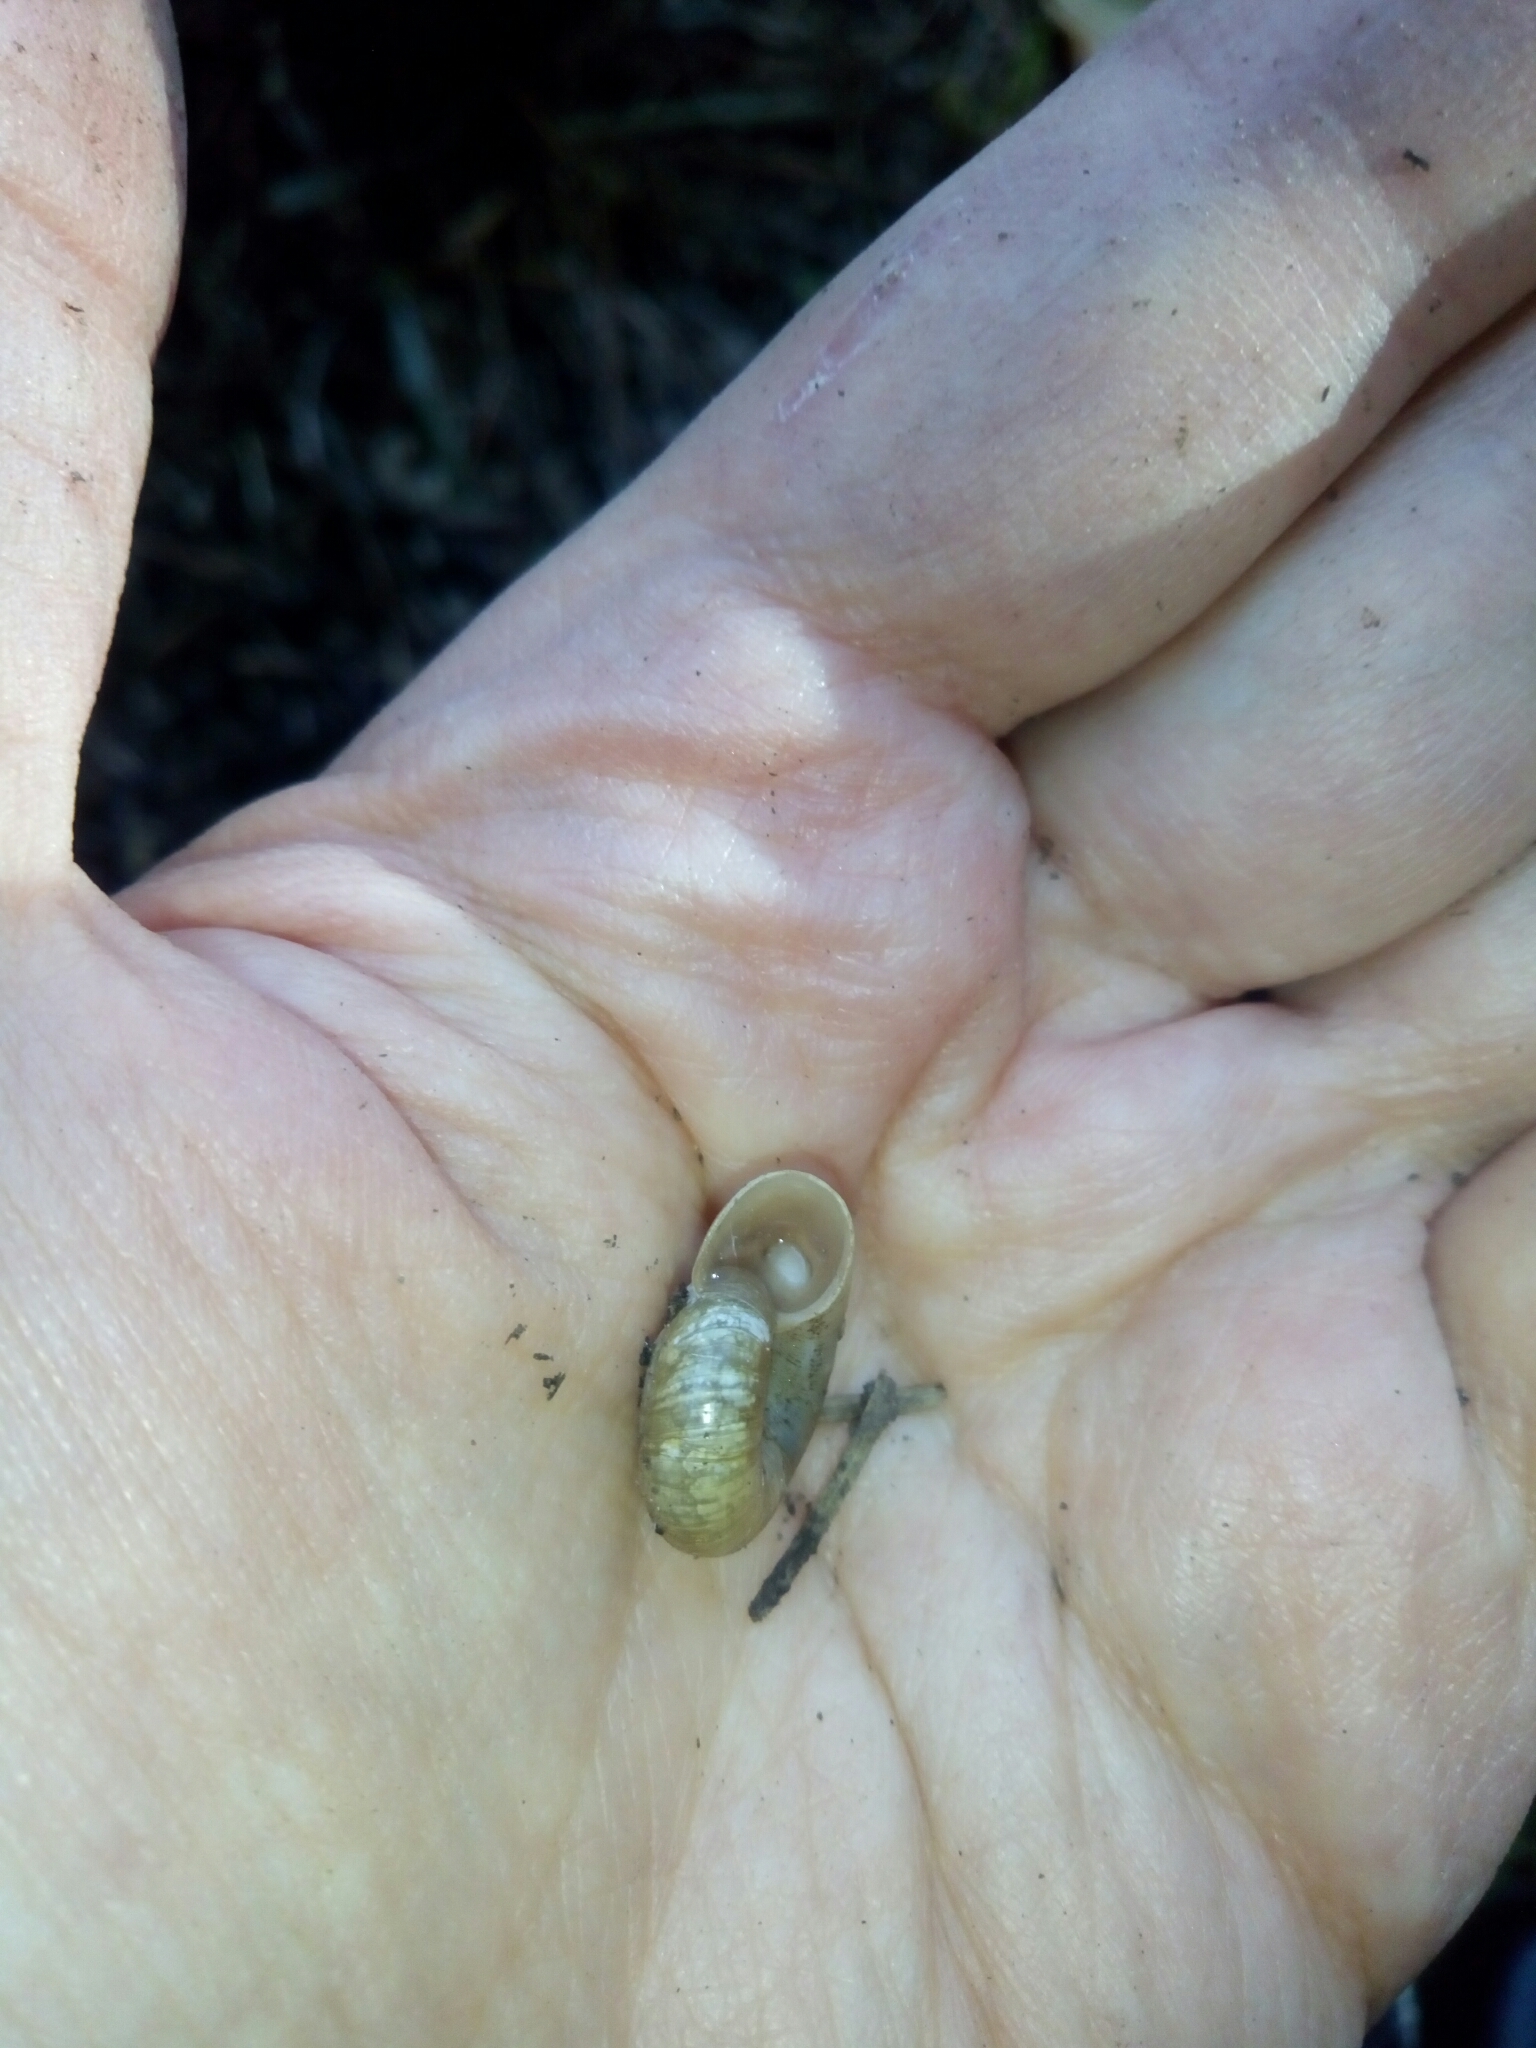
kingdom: Animalia
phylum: Mollusca
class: Gastropoda
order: Stylommatophora
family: Haplotrematidae
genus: Haplotrema
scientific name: Haplotrema concavum
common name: Gray-foot lancetooth
